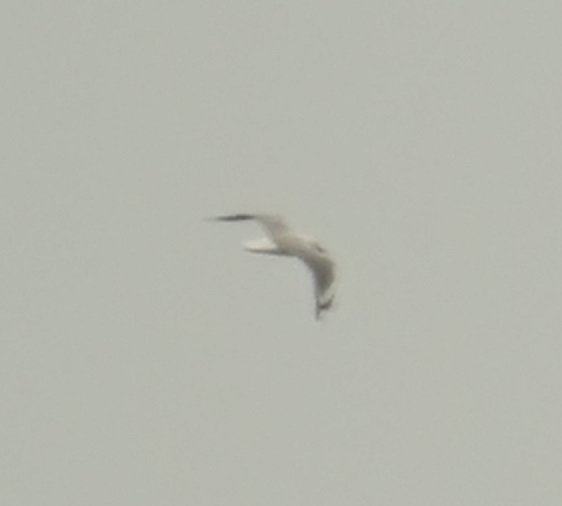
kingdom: Animalia
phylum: Chordata
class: Aves
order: Charadriiformes
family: Laridae
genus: Chroicocephalus
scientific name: Chroicocephalus novaehollandiae
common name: Silver gull
